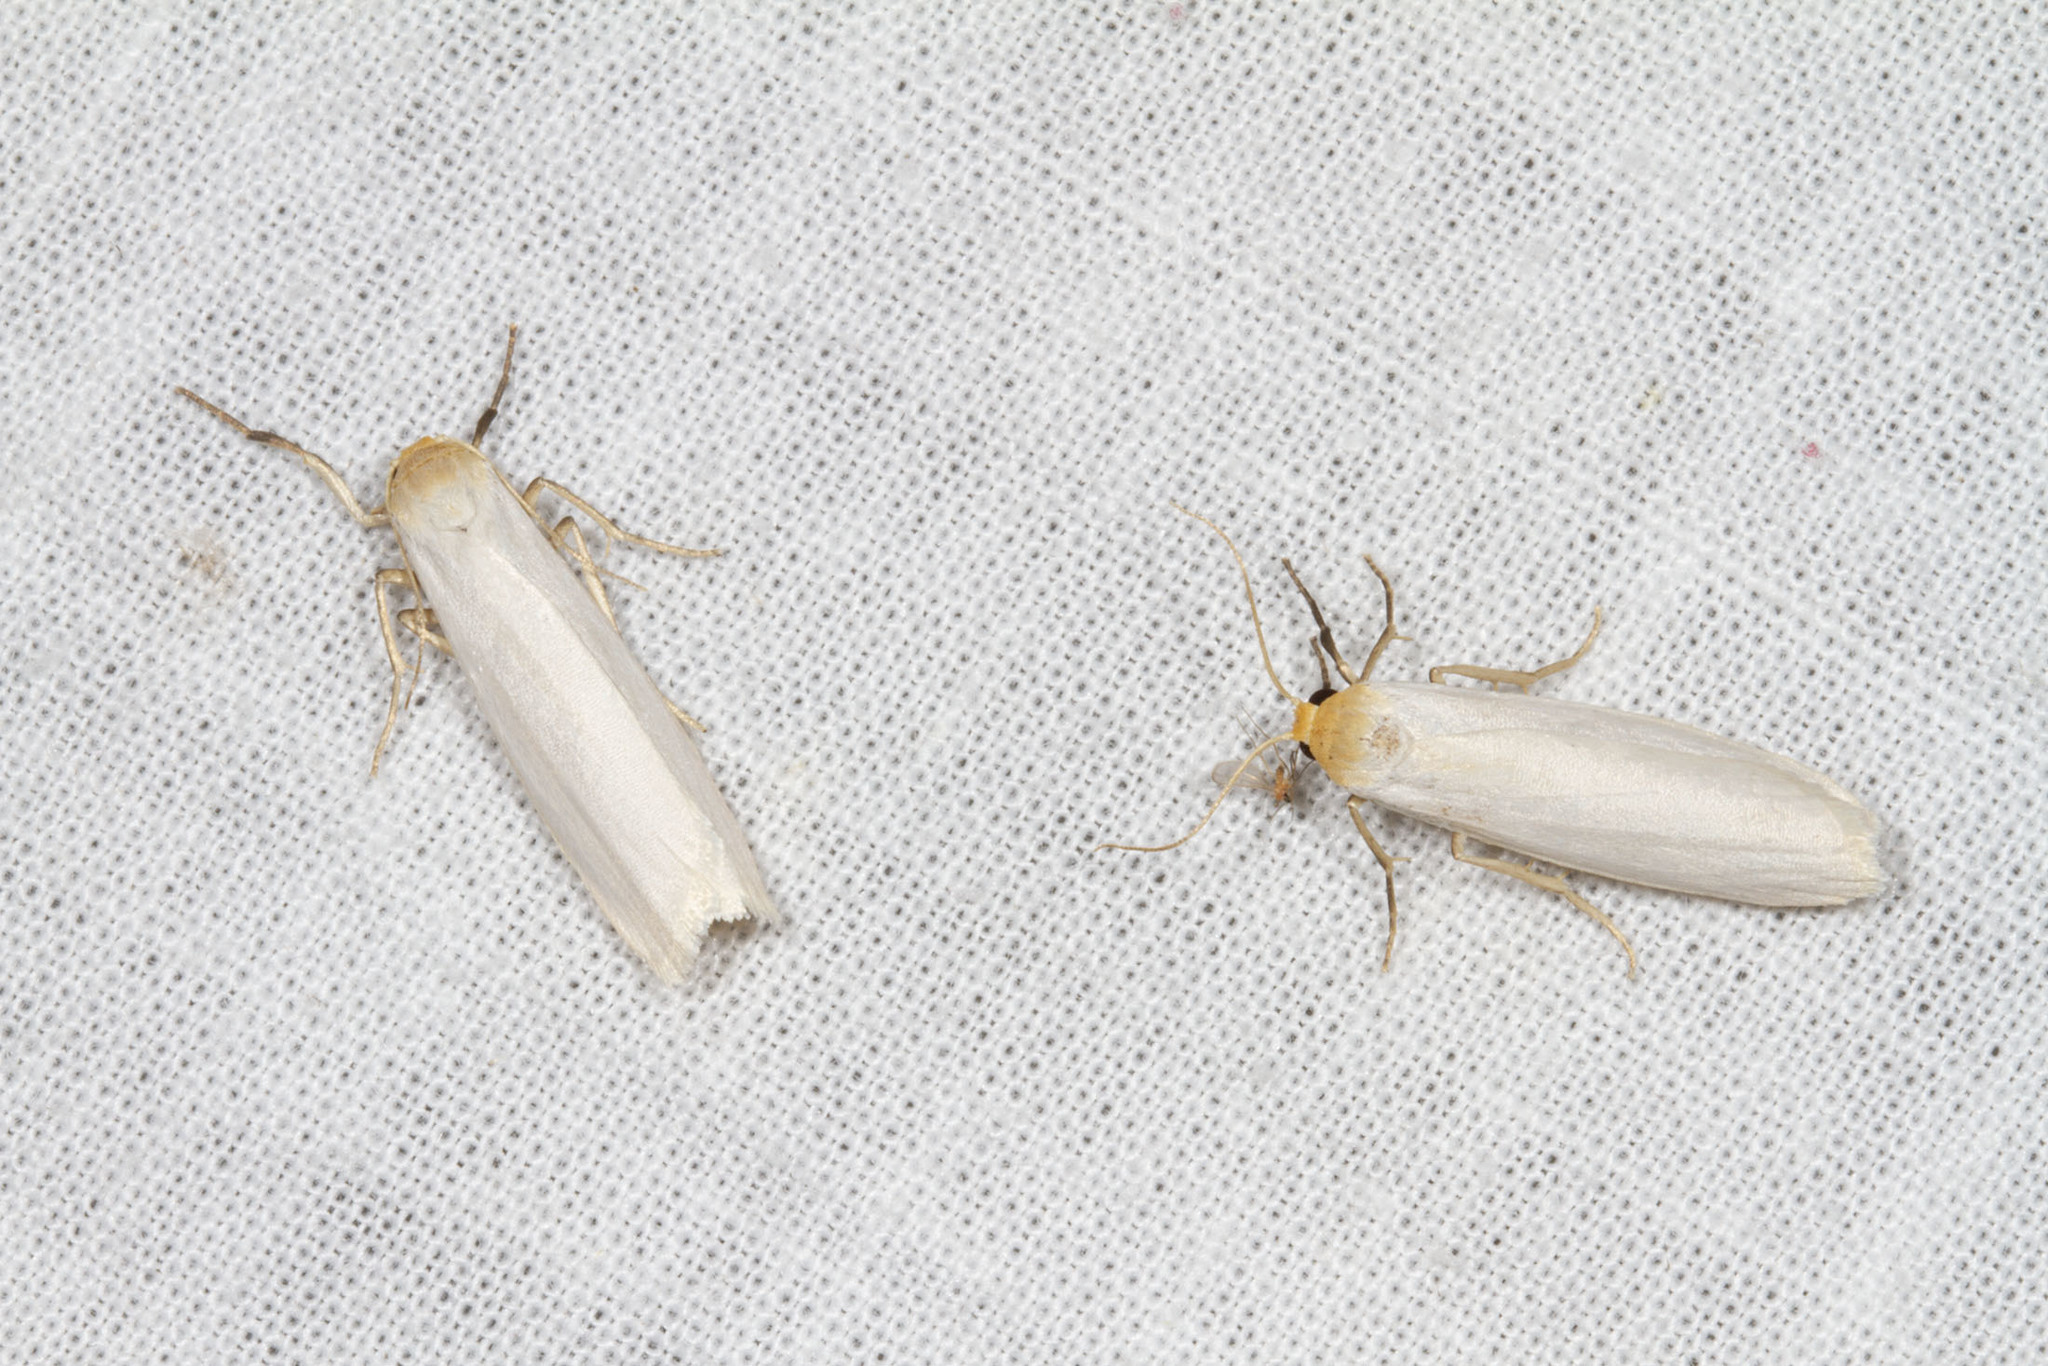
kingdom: Animalia
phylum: Arthropoda
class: Insecta
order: Lepidoptera
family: Erebidae
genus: Crambidia
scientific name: Crambidia xanthocorpa
